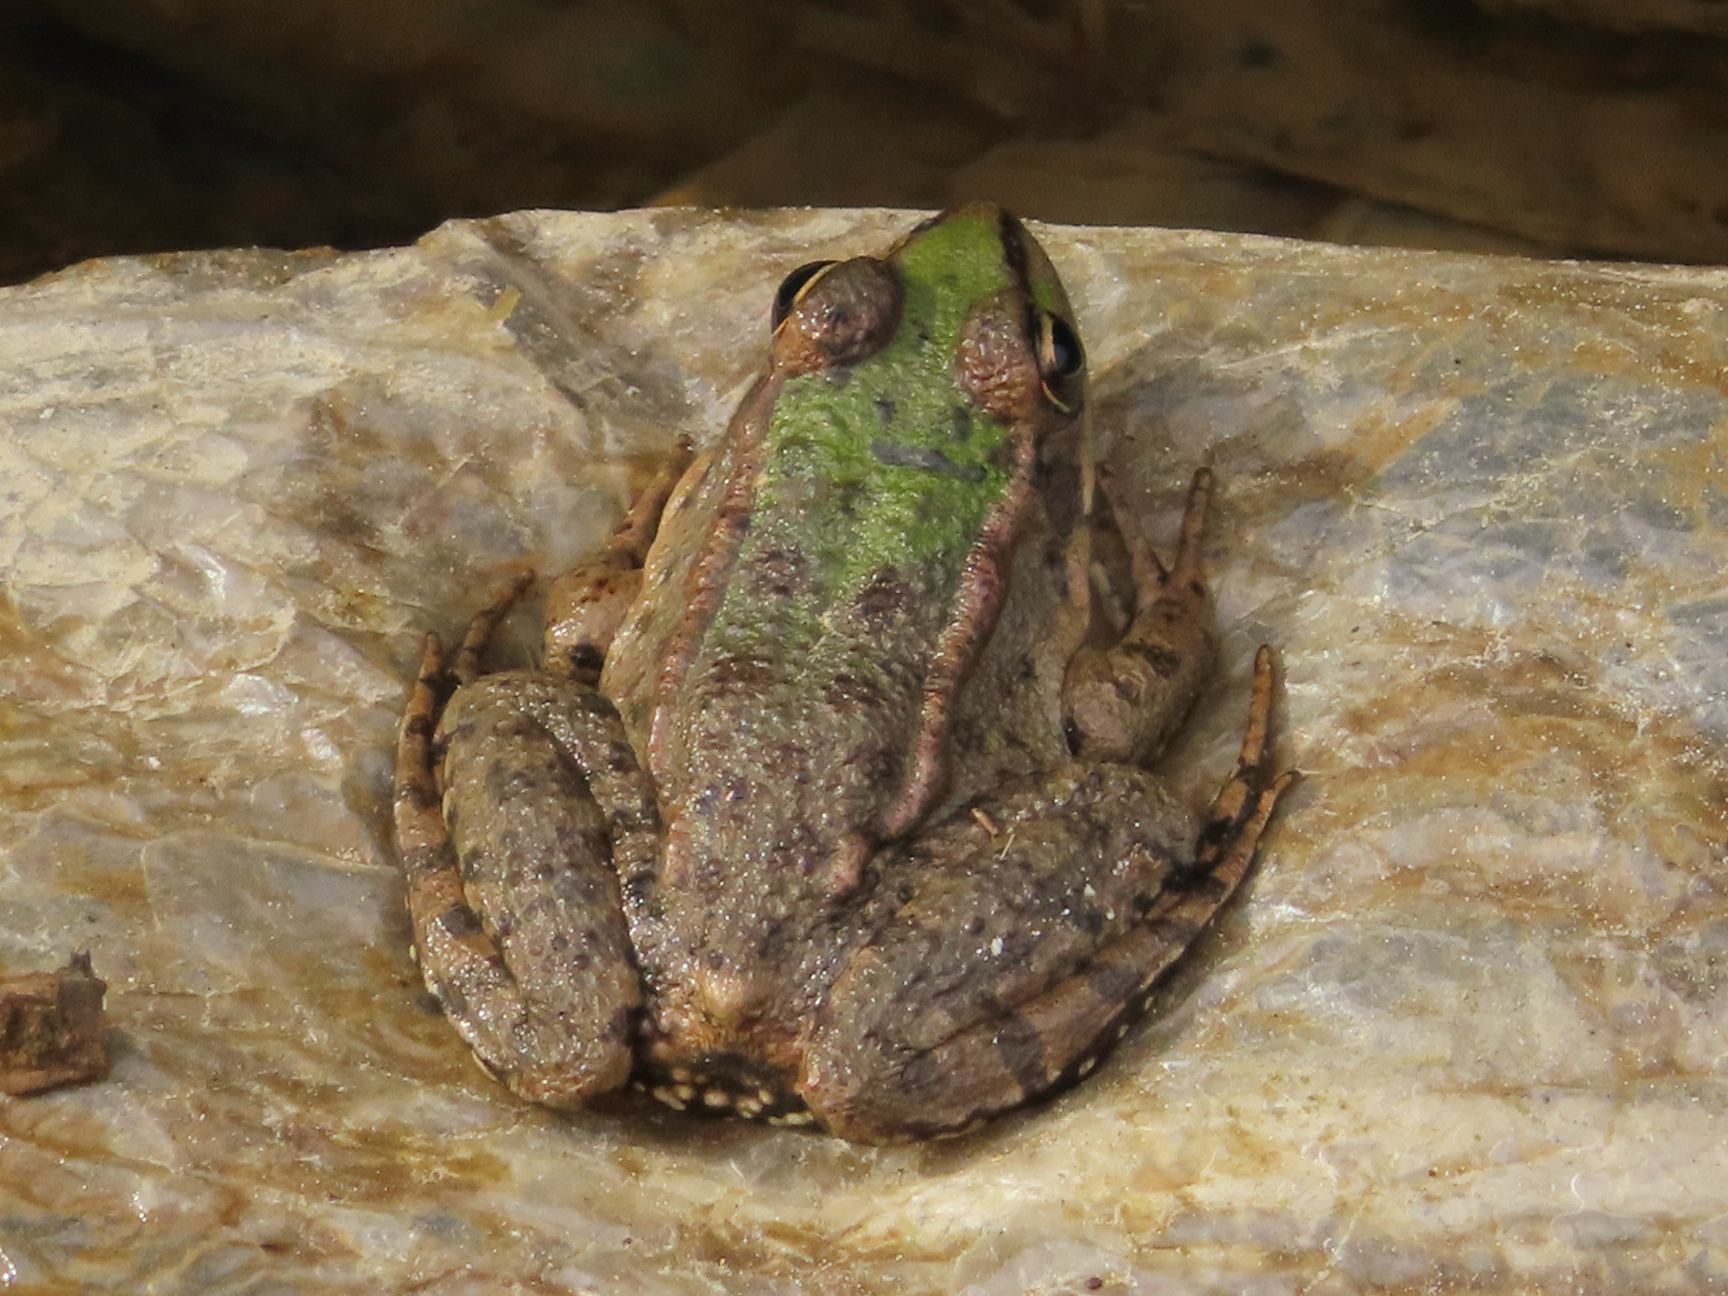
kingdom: Animalia
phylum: Chordata
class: Amphibia
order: Anura
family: Ranidae
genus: Pelophylax
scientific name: Pelophylax ridibundus
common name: Marsh frog
